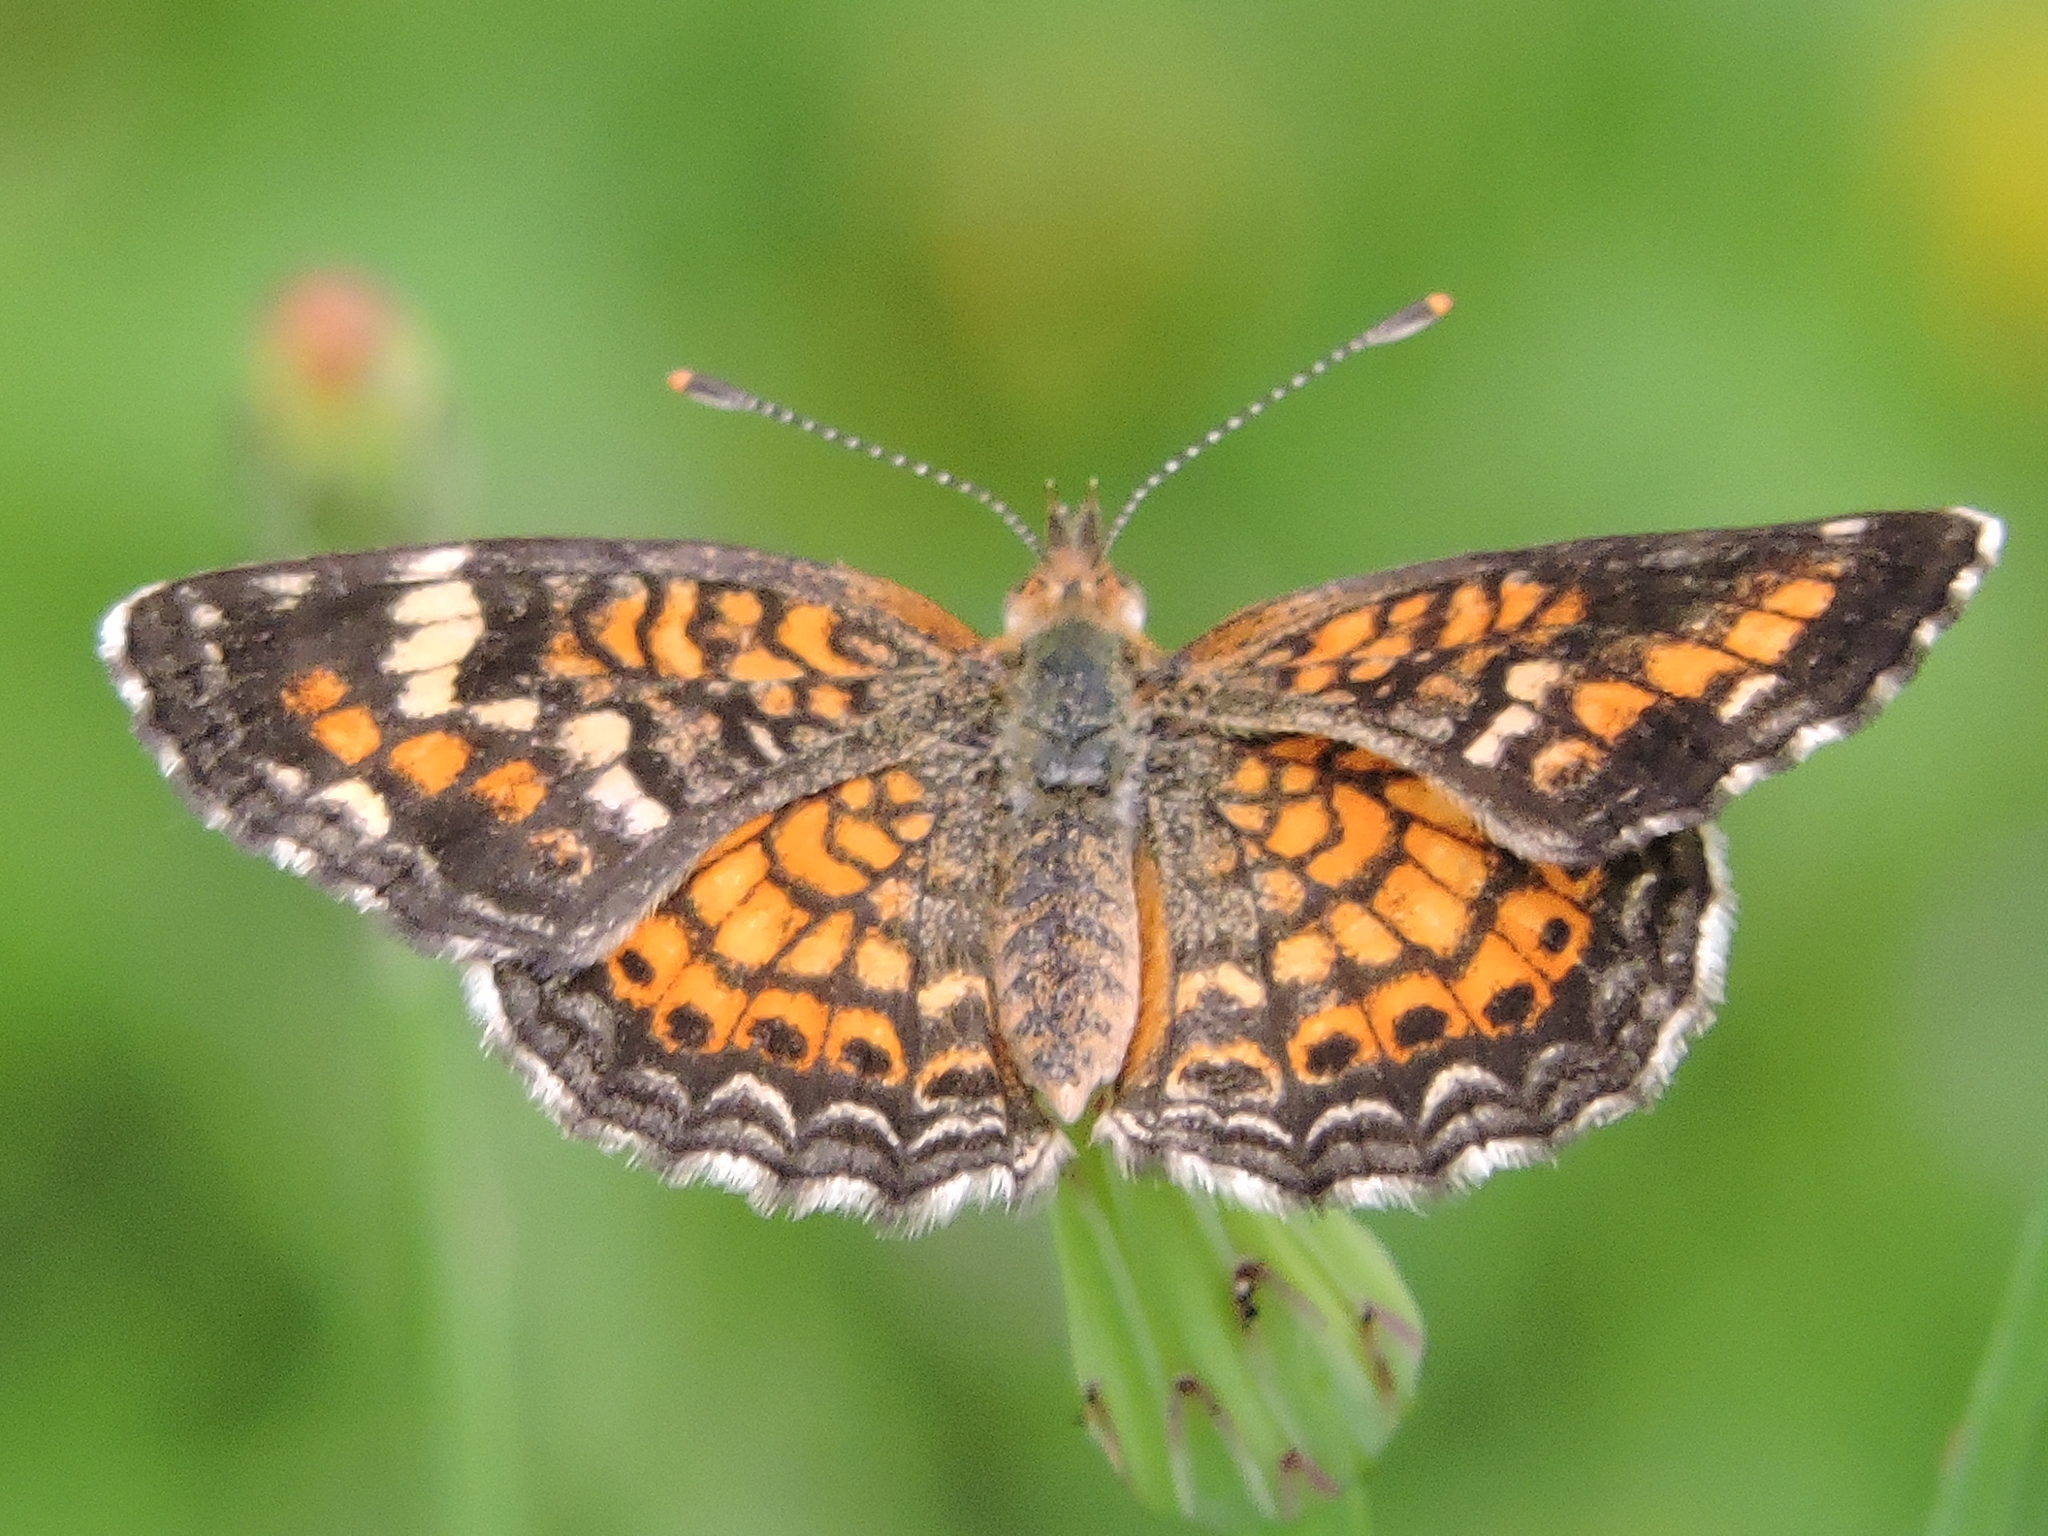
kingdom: Animalia
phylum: Arthropoda
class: Insecta
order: Lepidoptera
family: Nymphalidae
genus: Phyciodes
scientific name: Phyciodes phaon
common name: Phaon crescent
